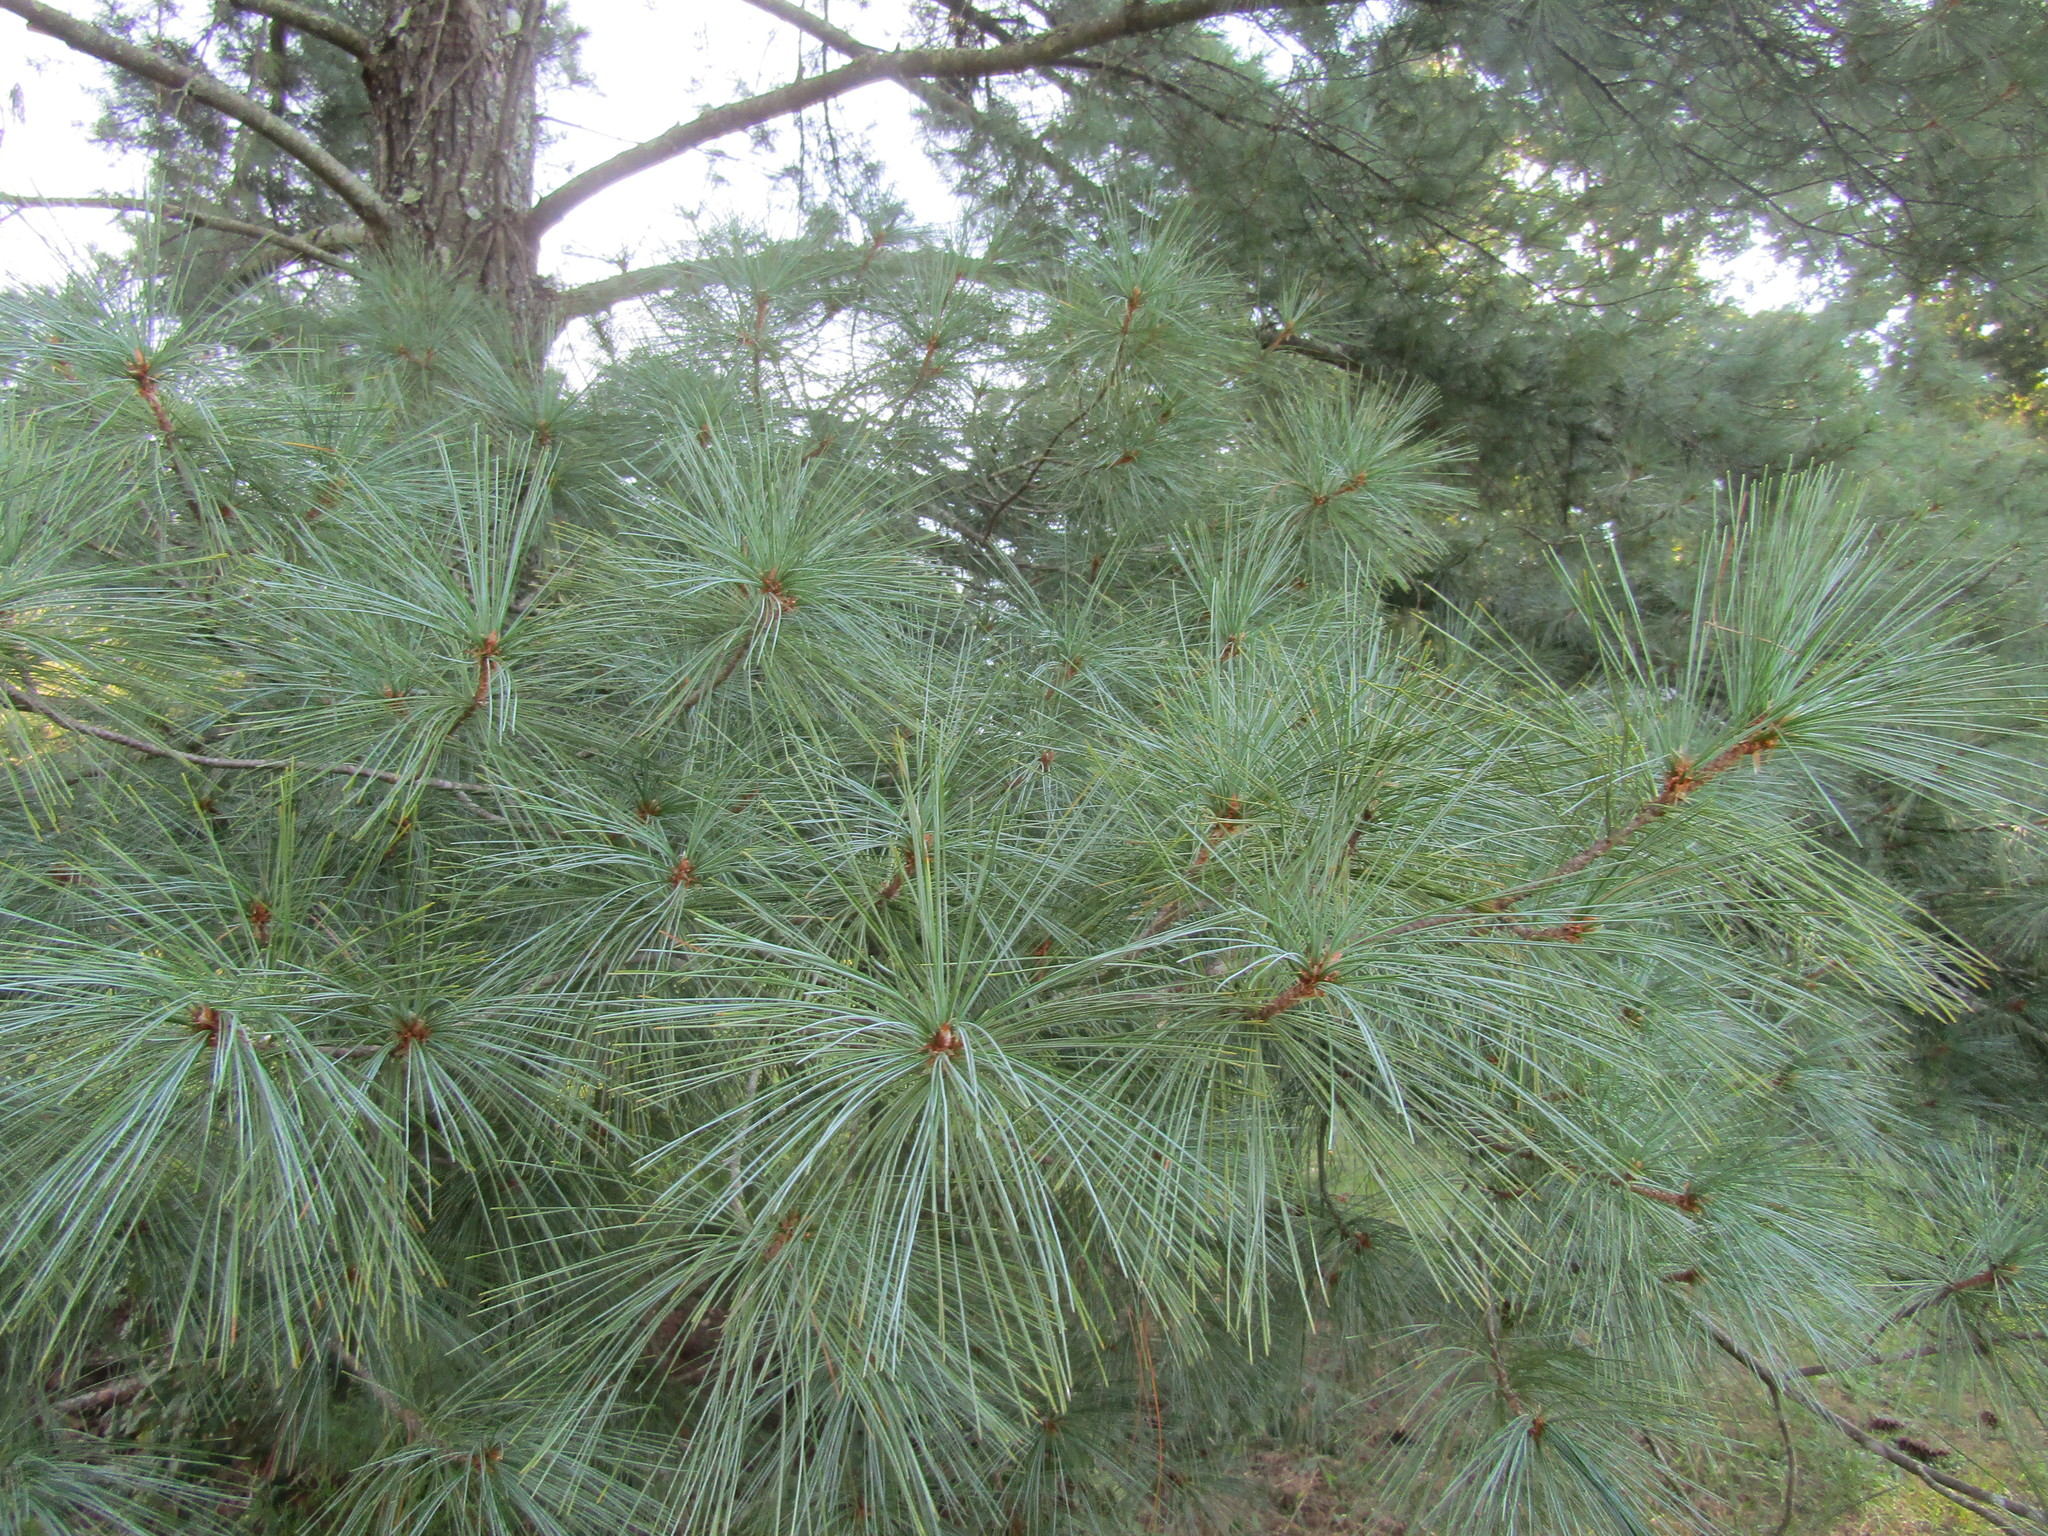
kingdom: Plantae
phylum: Tracheophyta
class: Pinopsida
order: Pinales
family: Pinaceae
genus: Pinus
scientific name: Pinus strobus
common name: Weymouth pine
